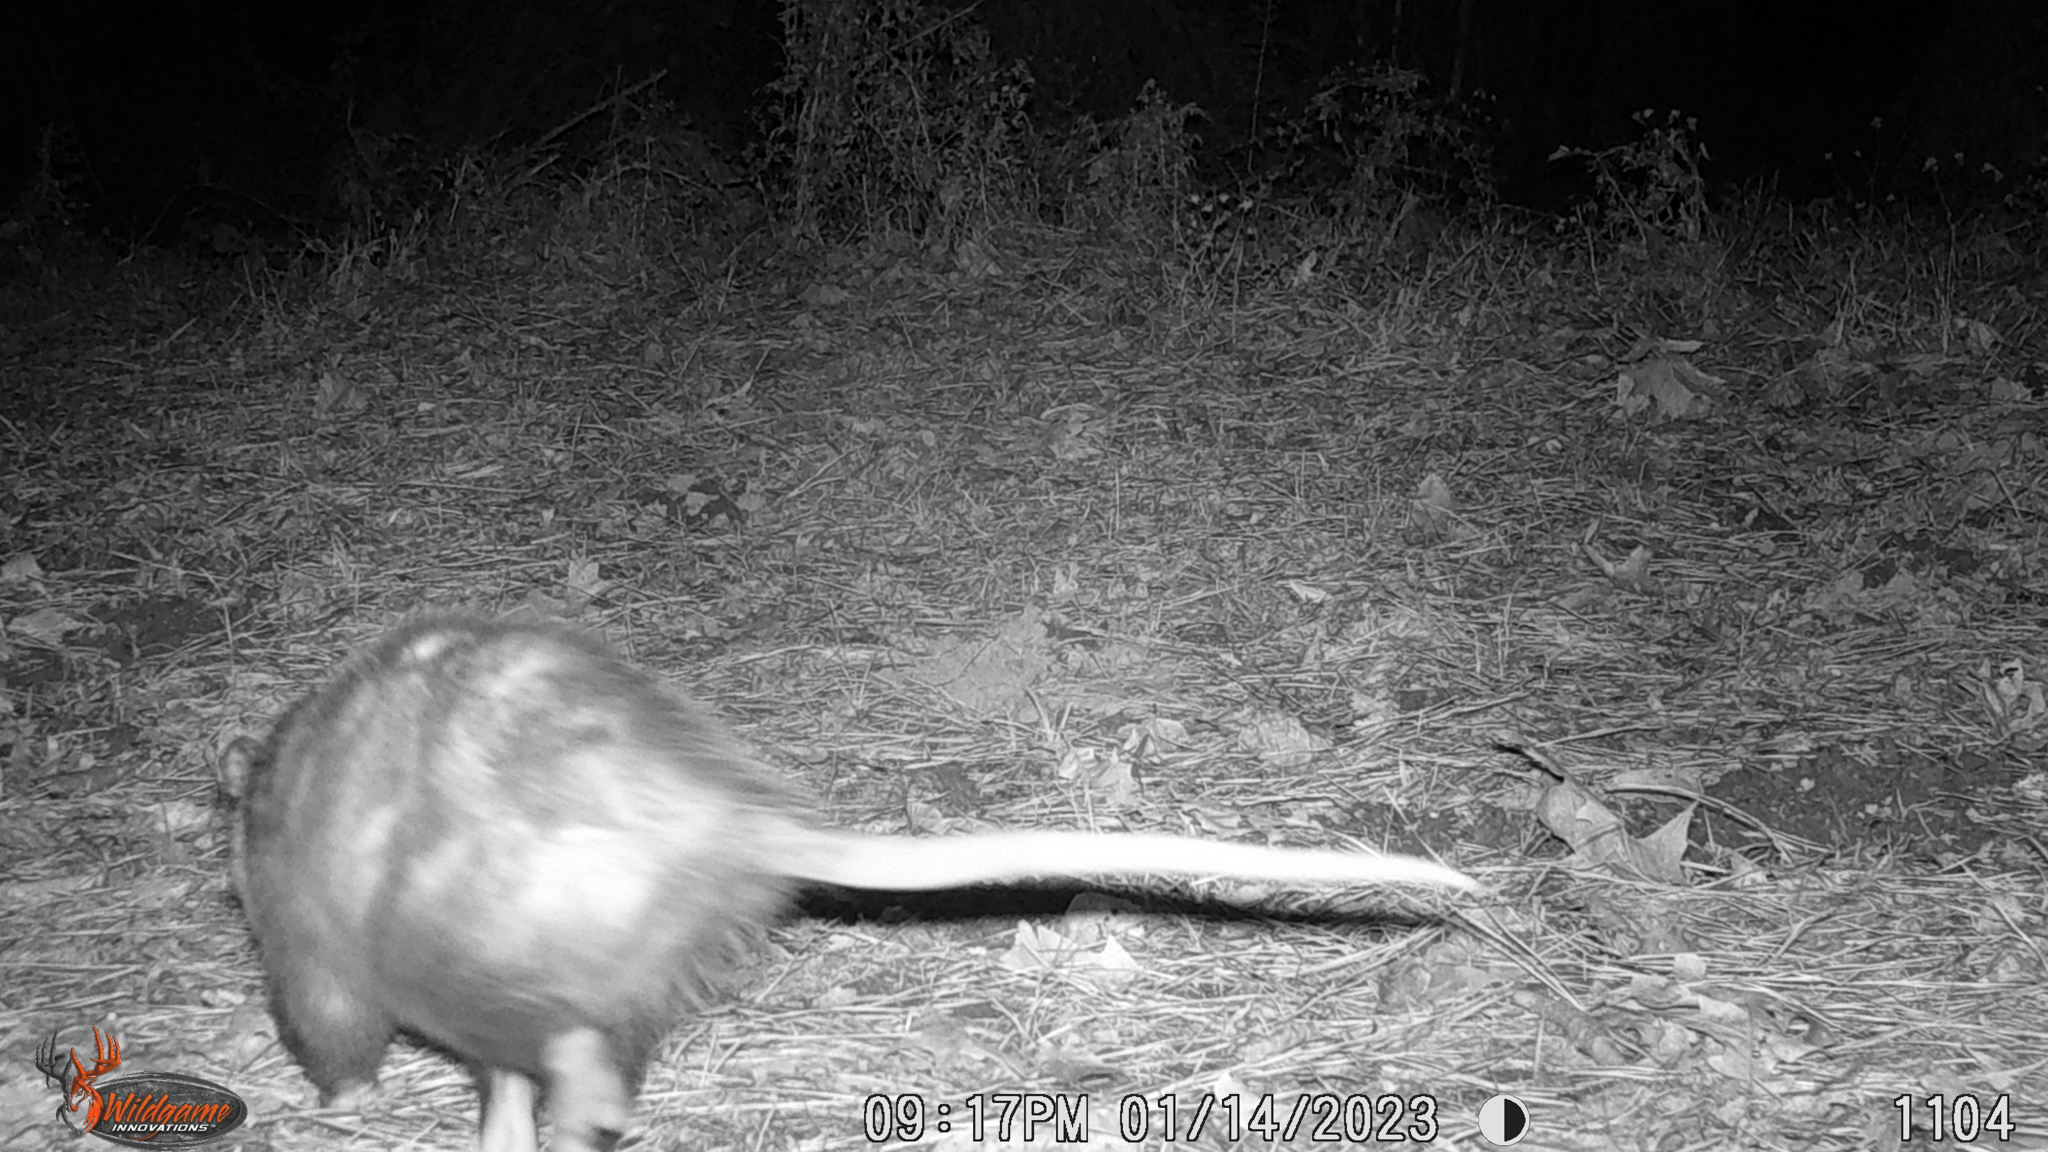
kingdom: Animalia
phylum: Chordata
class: Mammalia
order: Didelphimorphia
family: Didelphidae
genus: Didelphis
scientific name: Didelphis virginiana
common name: Virginia opossum
